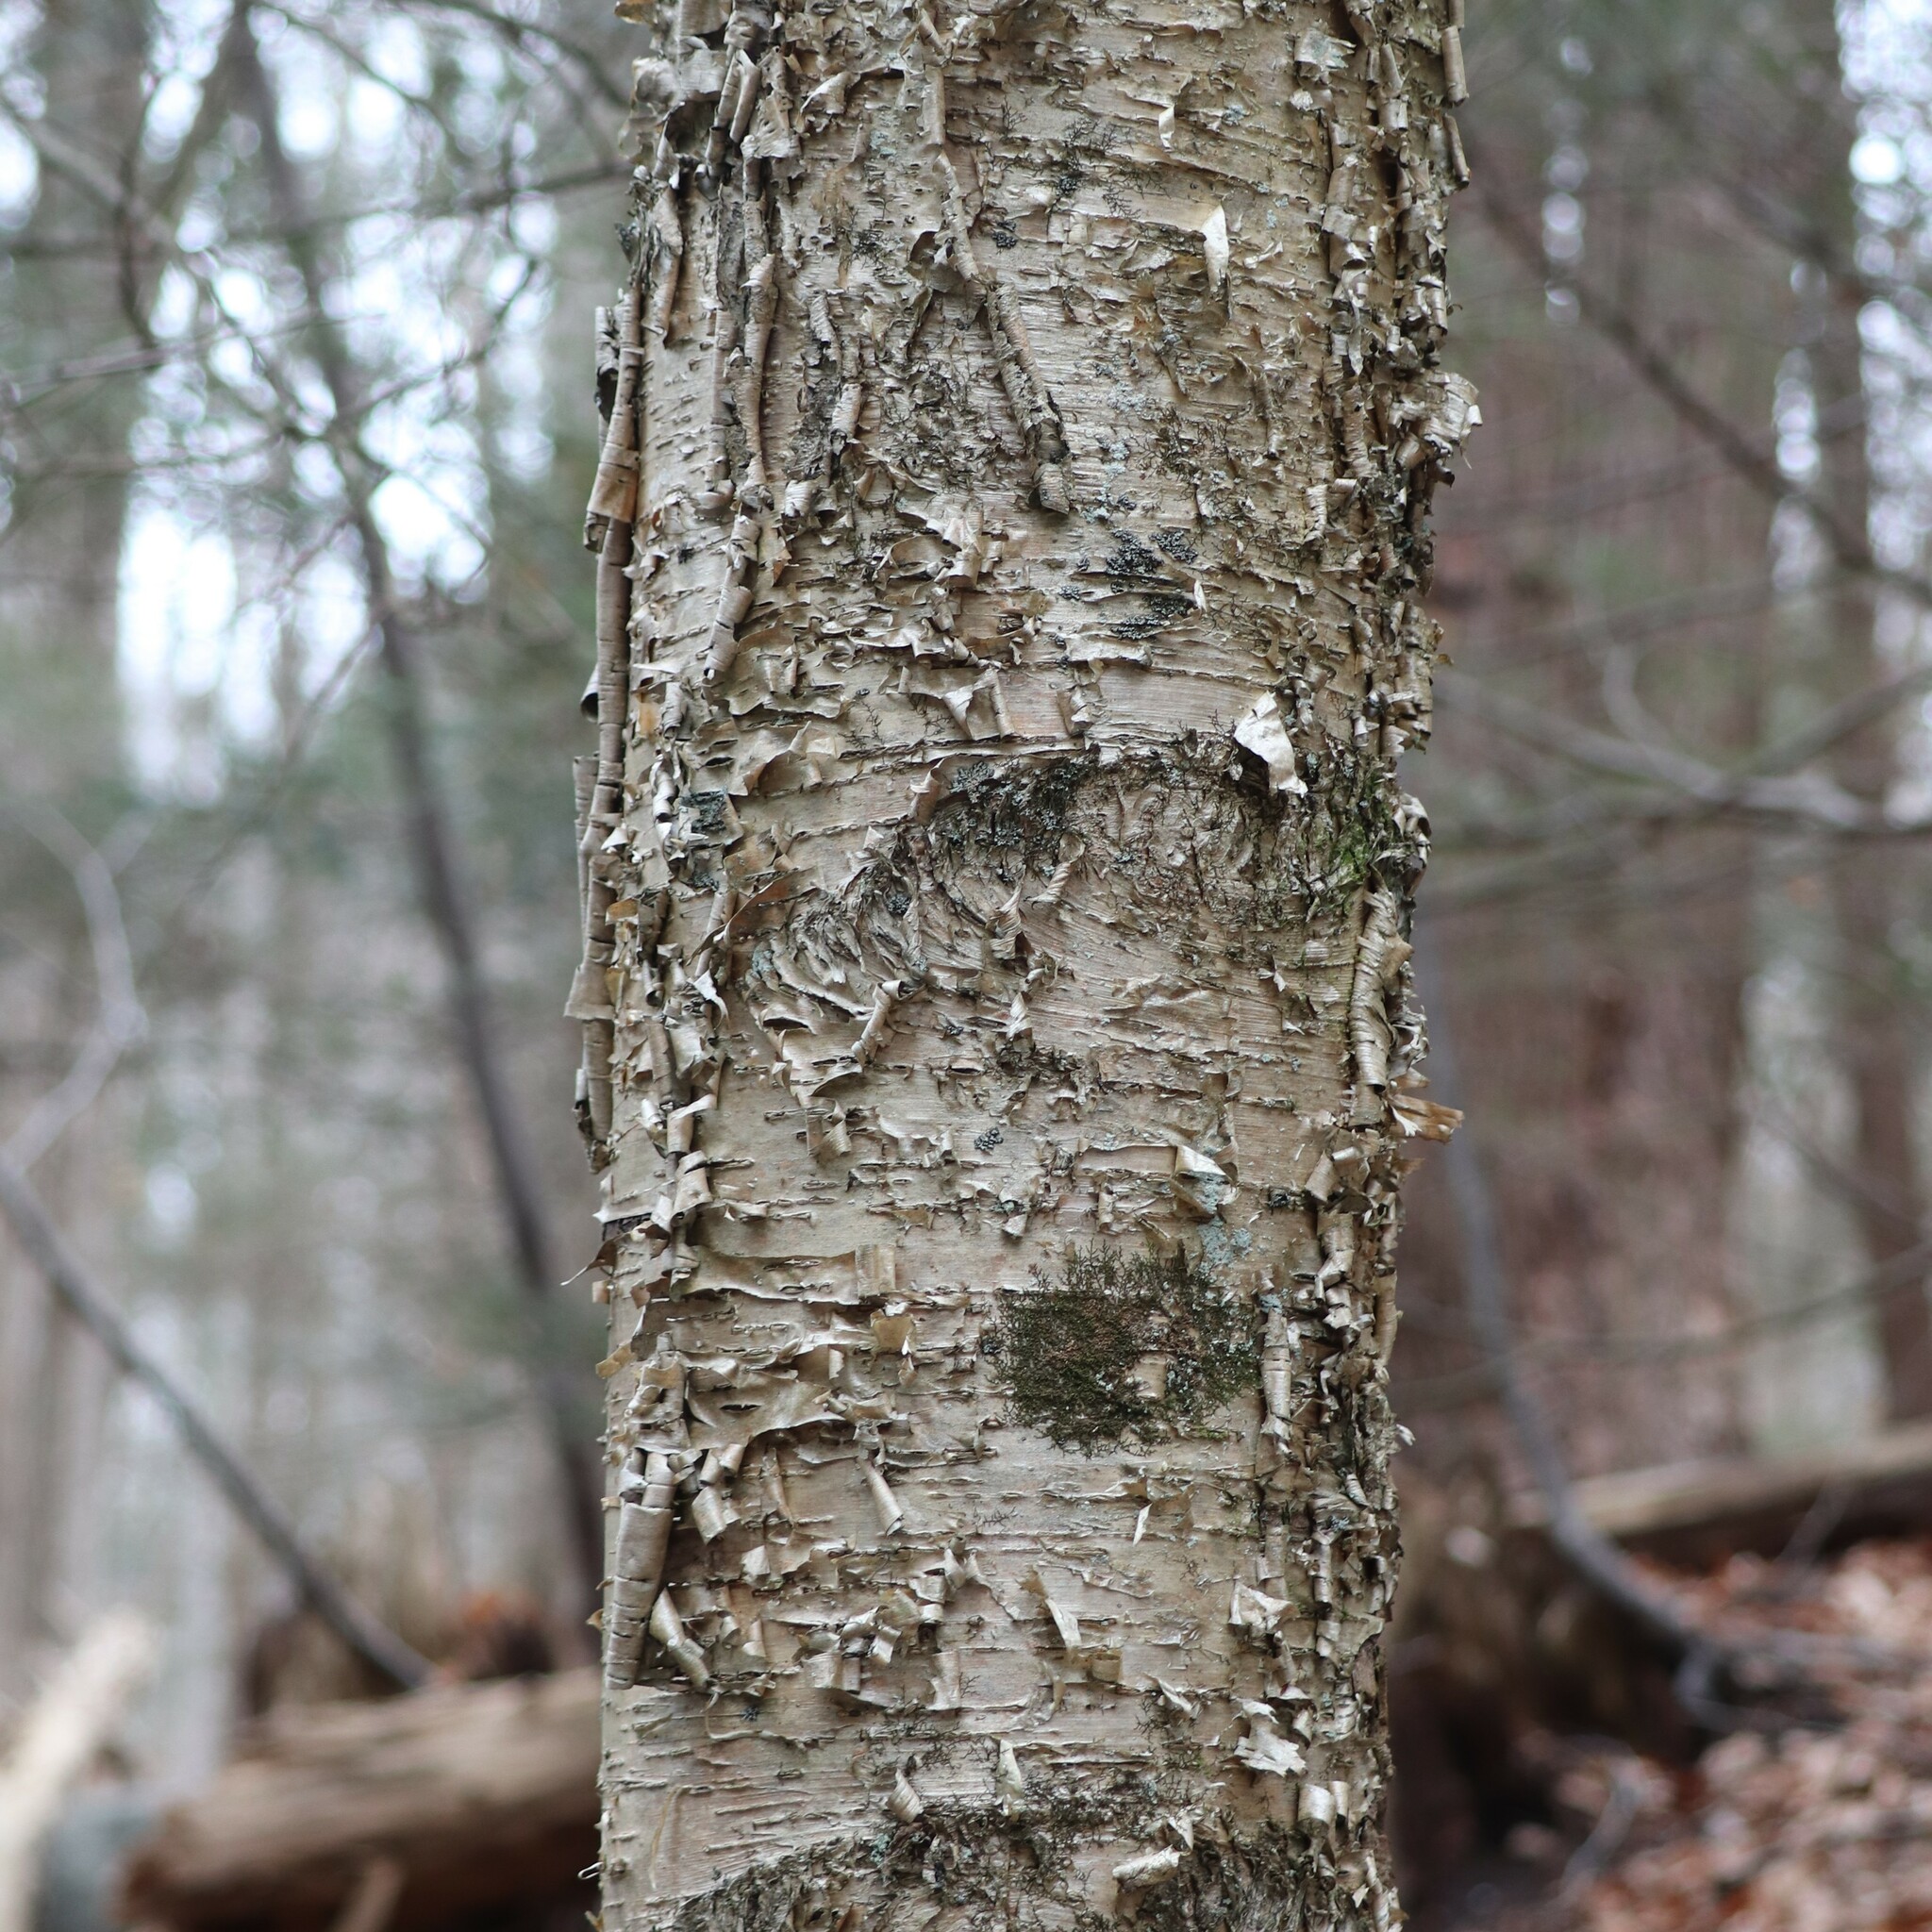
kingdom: Plantae
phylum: Tracheophyta
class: Magnoliopsida
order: Fagales
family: Betulaceae
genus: Betula
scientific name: Betula alleghaniensis
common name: Yellow birch
